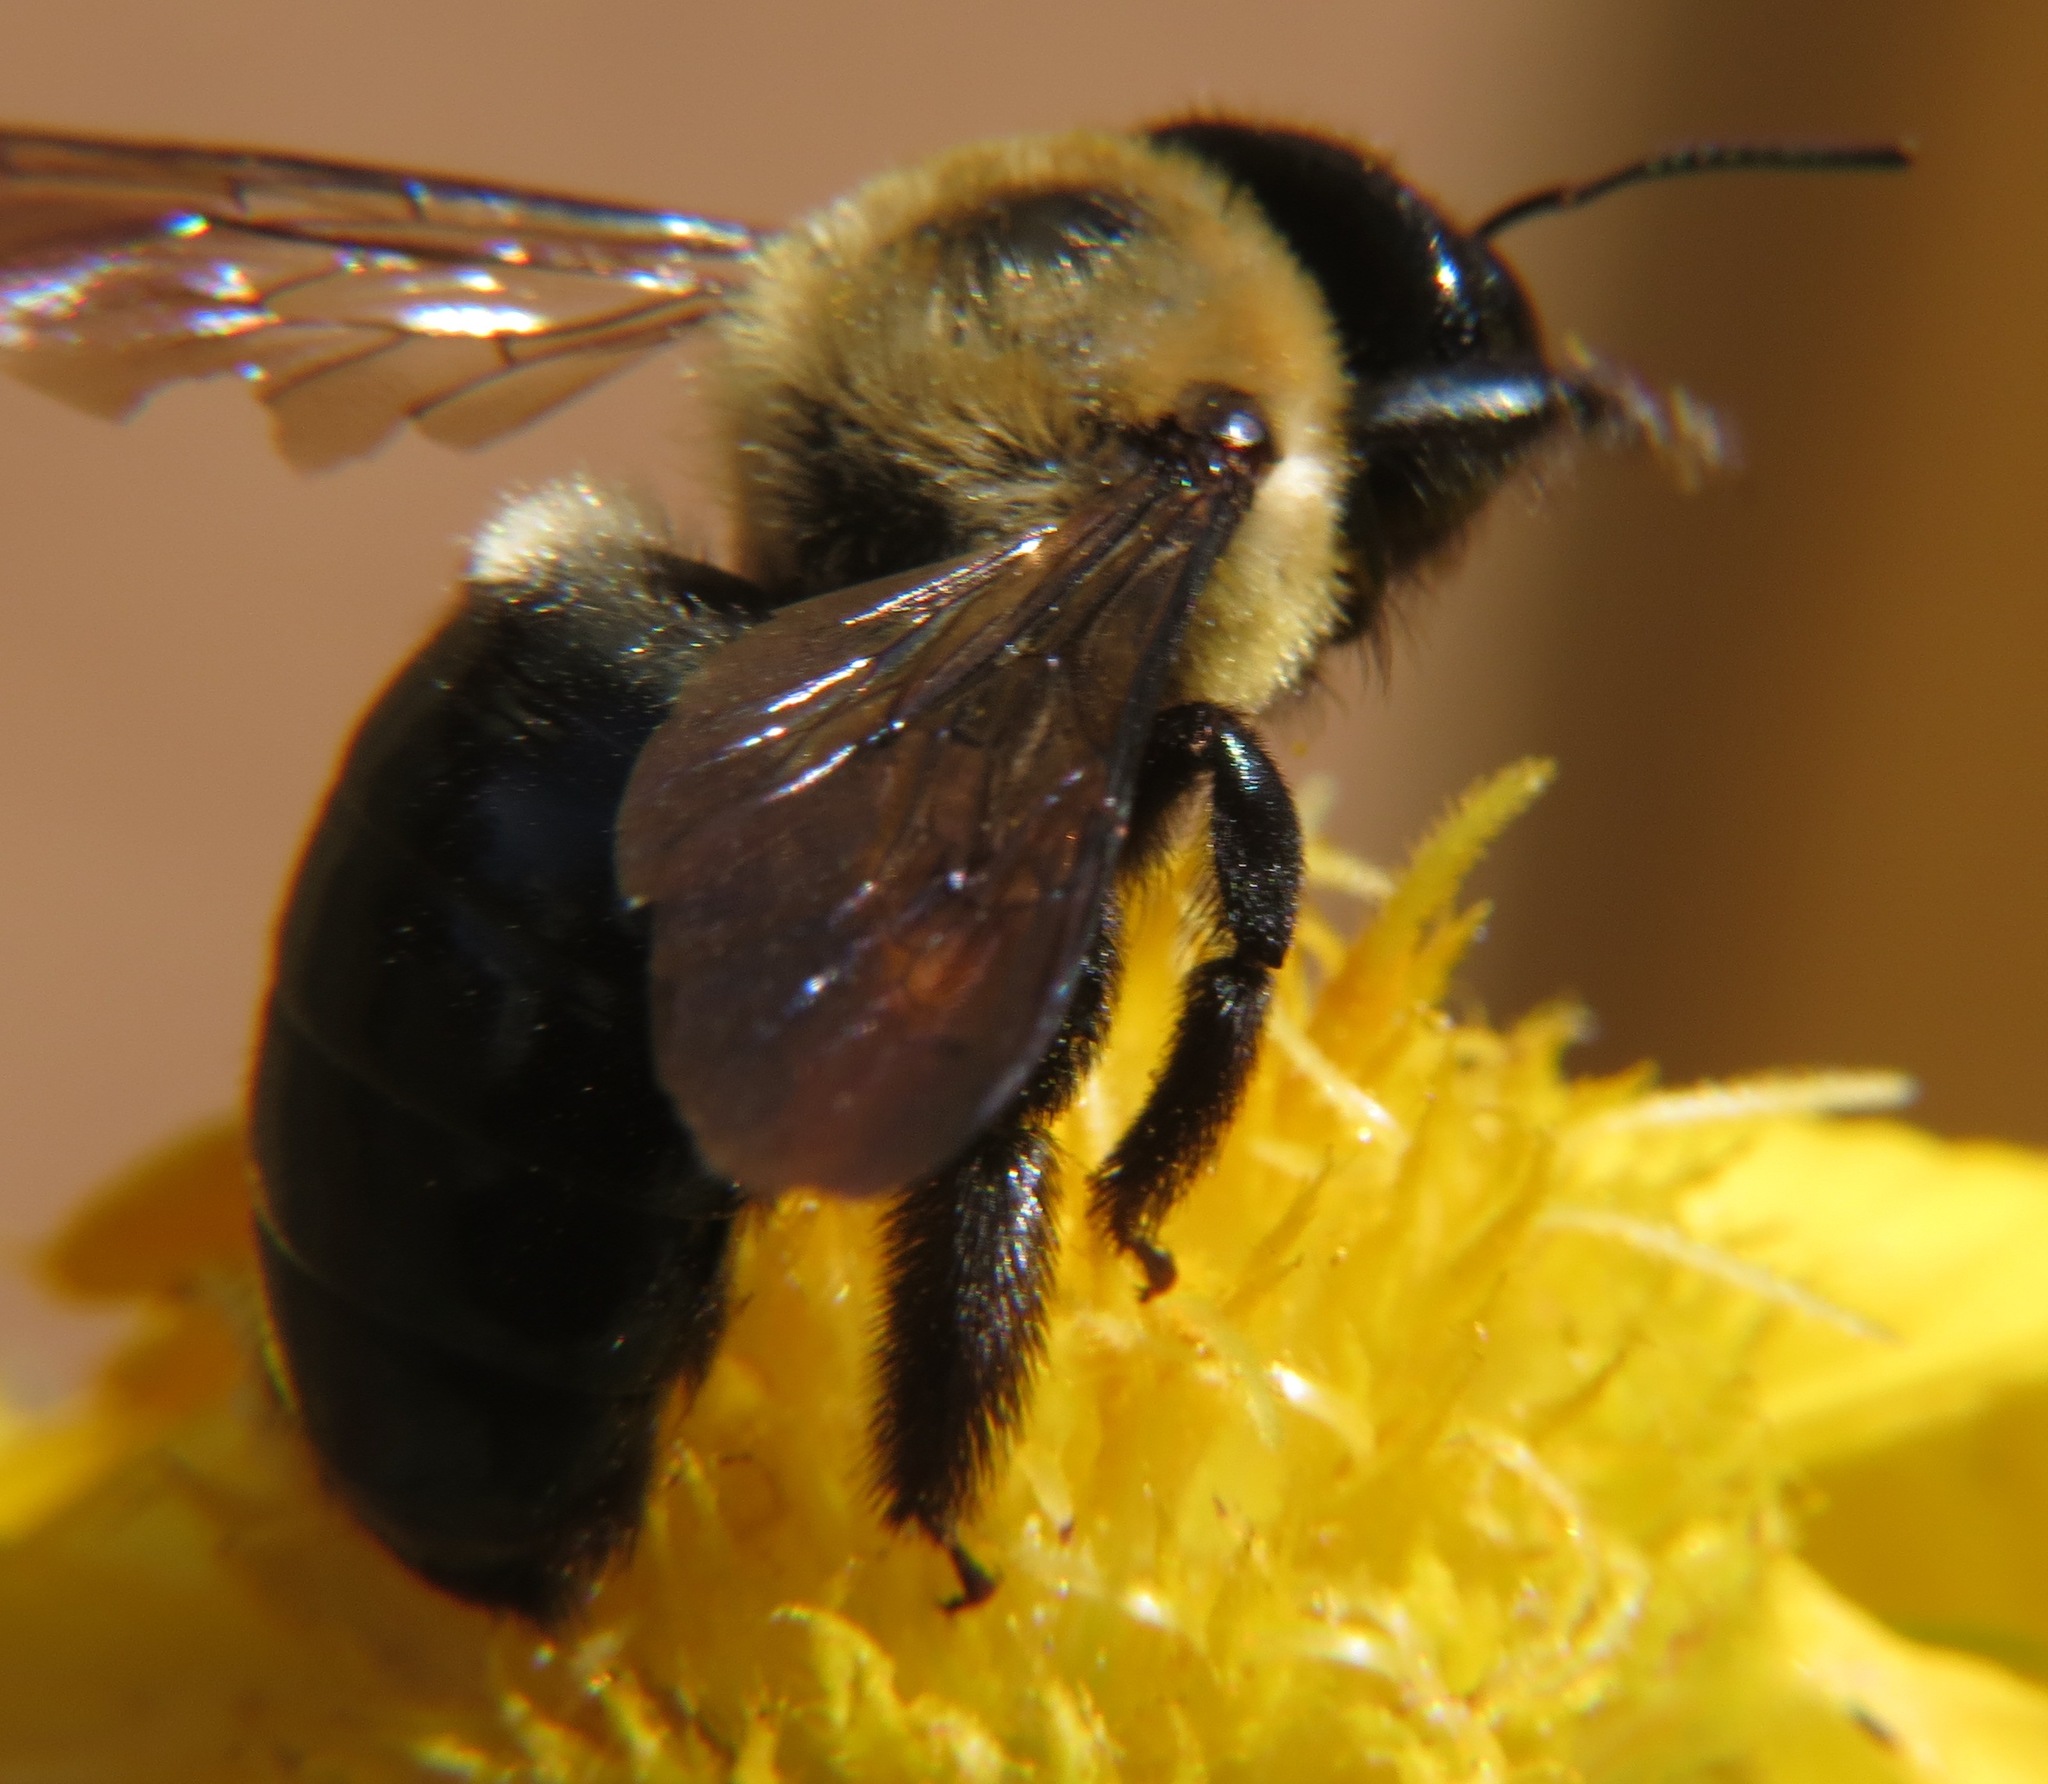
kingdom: Animalia
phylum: Arthropoda
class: Insecta
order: Hymenoptera
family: Apidae
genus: Xylocopa
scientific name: Xylocopa virginica
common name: Carpenter bee
